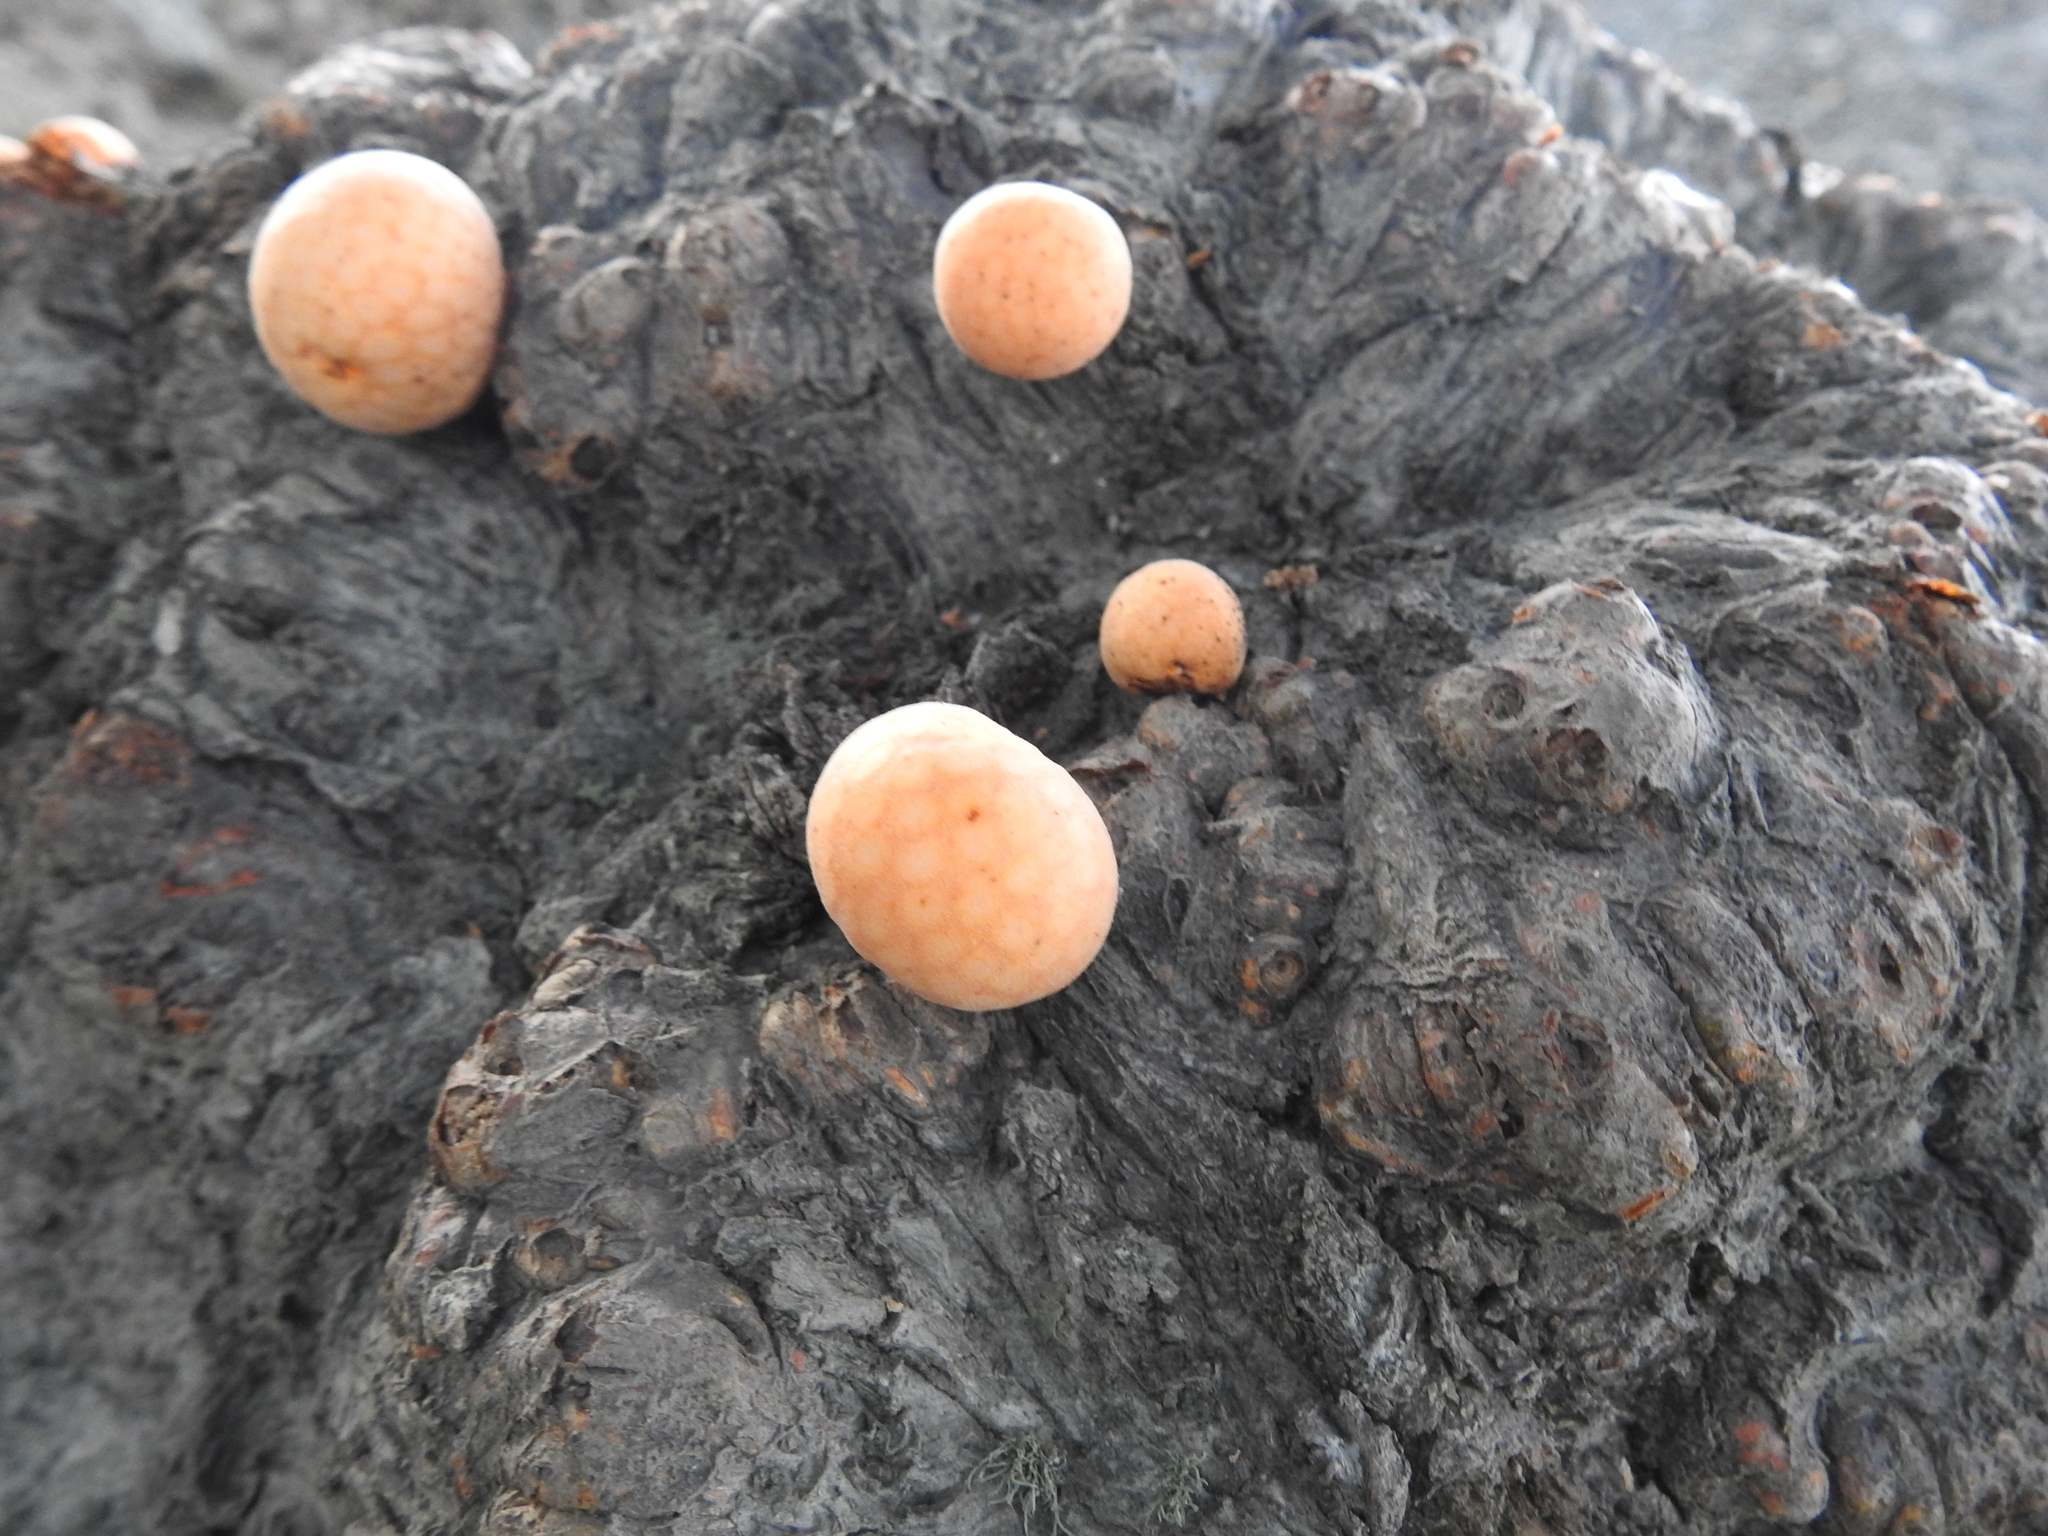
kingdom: Fungi
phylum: Ascomycota
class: Leotiomycetes
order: Cyttariales
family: Cyttariaceae
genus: Cyttaria
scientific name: Cyttaria hariotii
